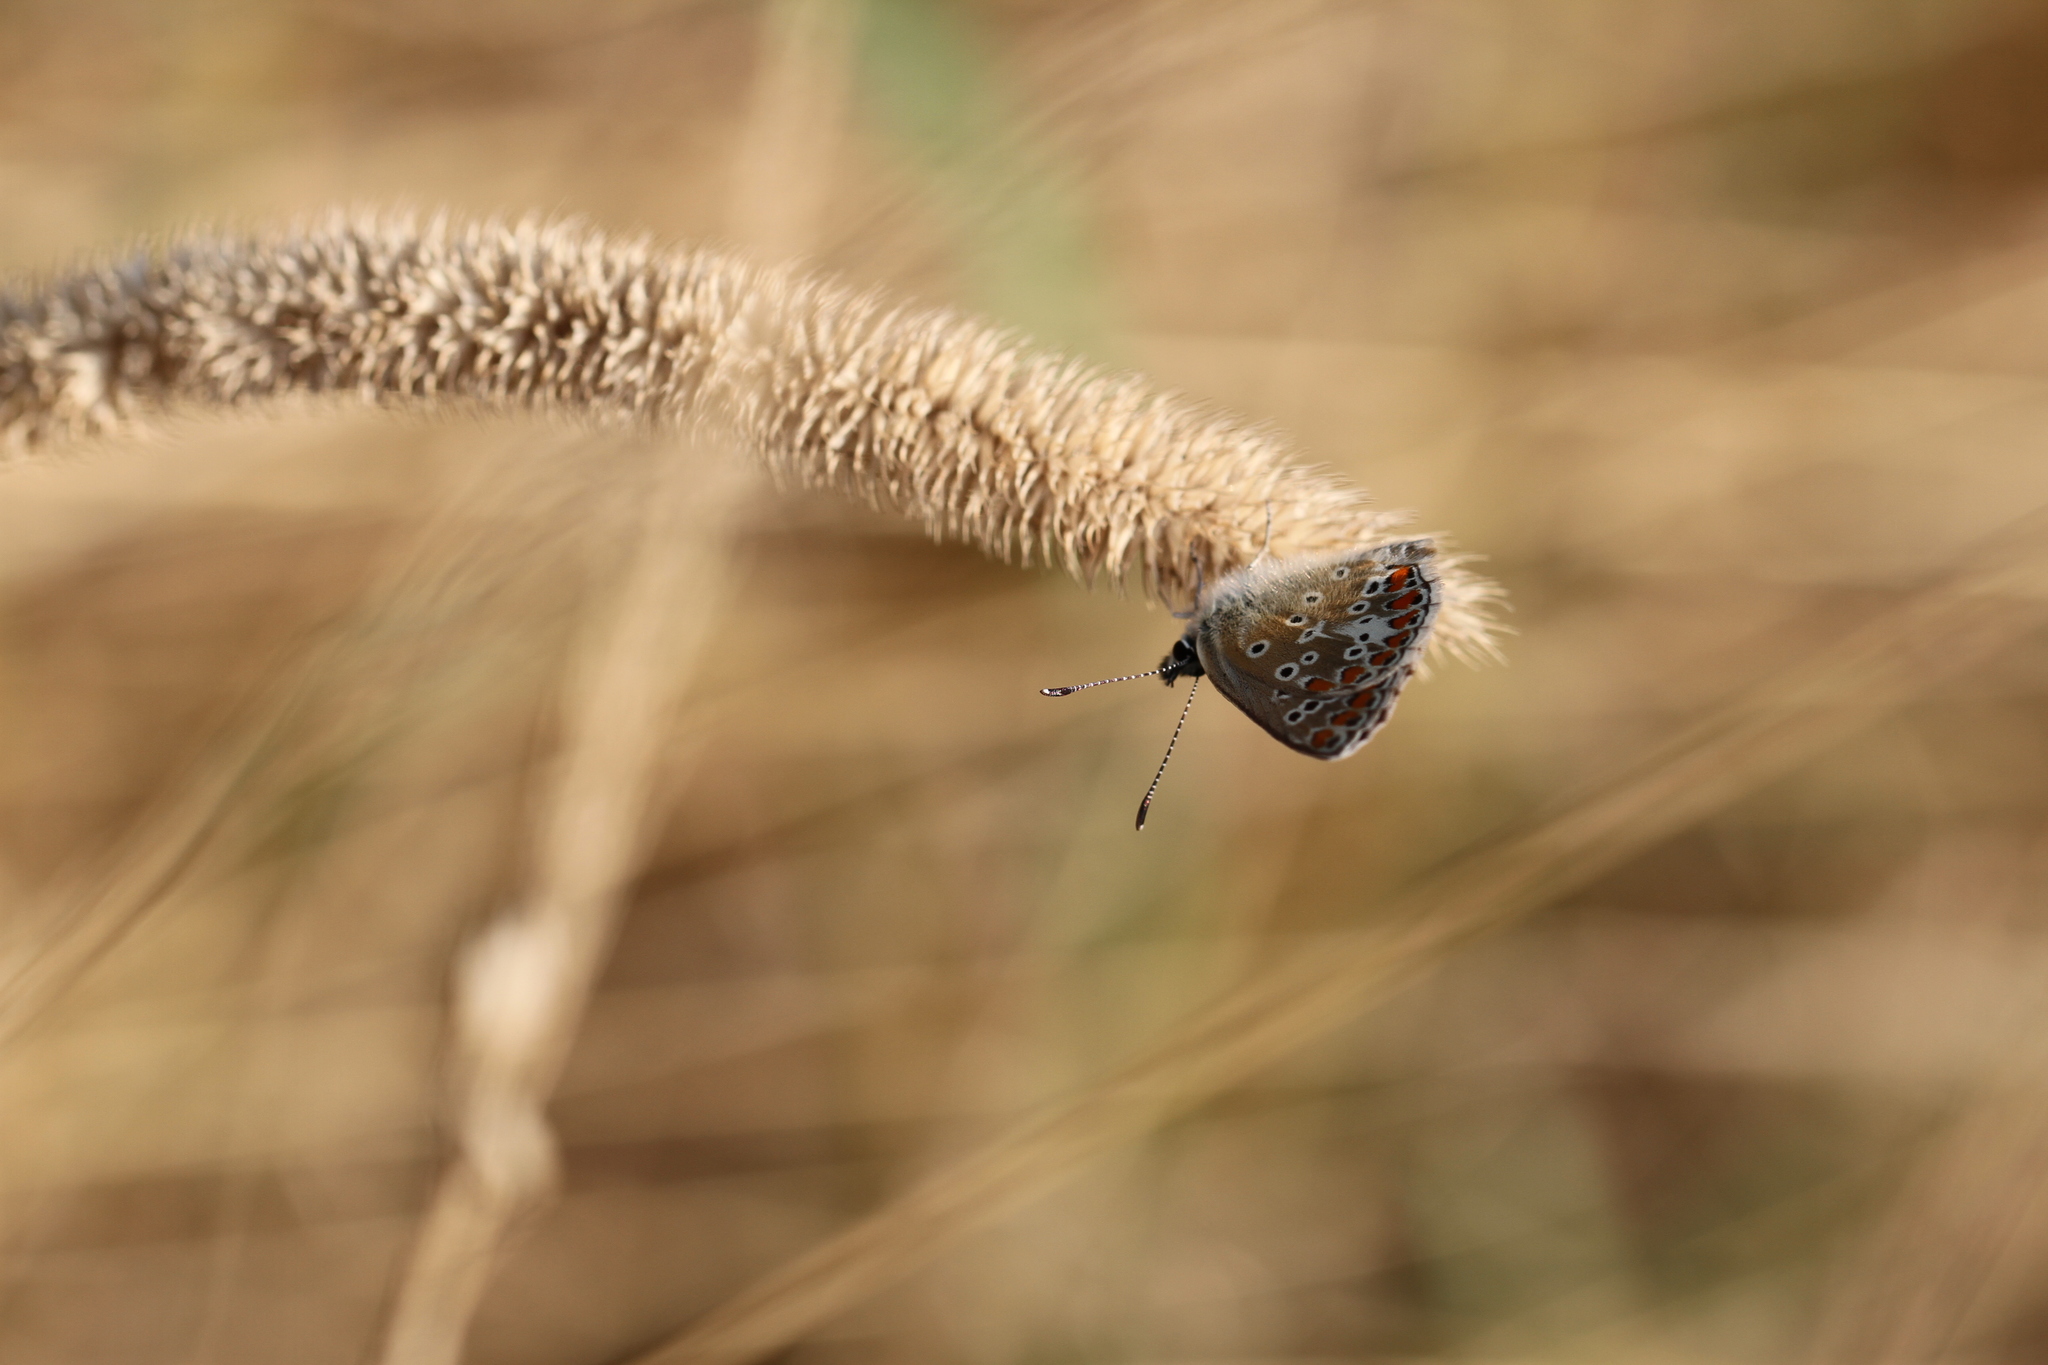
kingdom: Animalia
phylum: Arthropoda
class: Insecta
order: Lepidoptera
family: Lycaenidae
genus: Aricia
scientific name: Aricia agestis
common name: Brown argus
